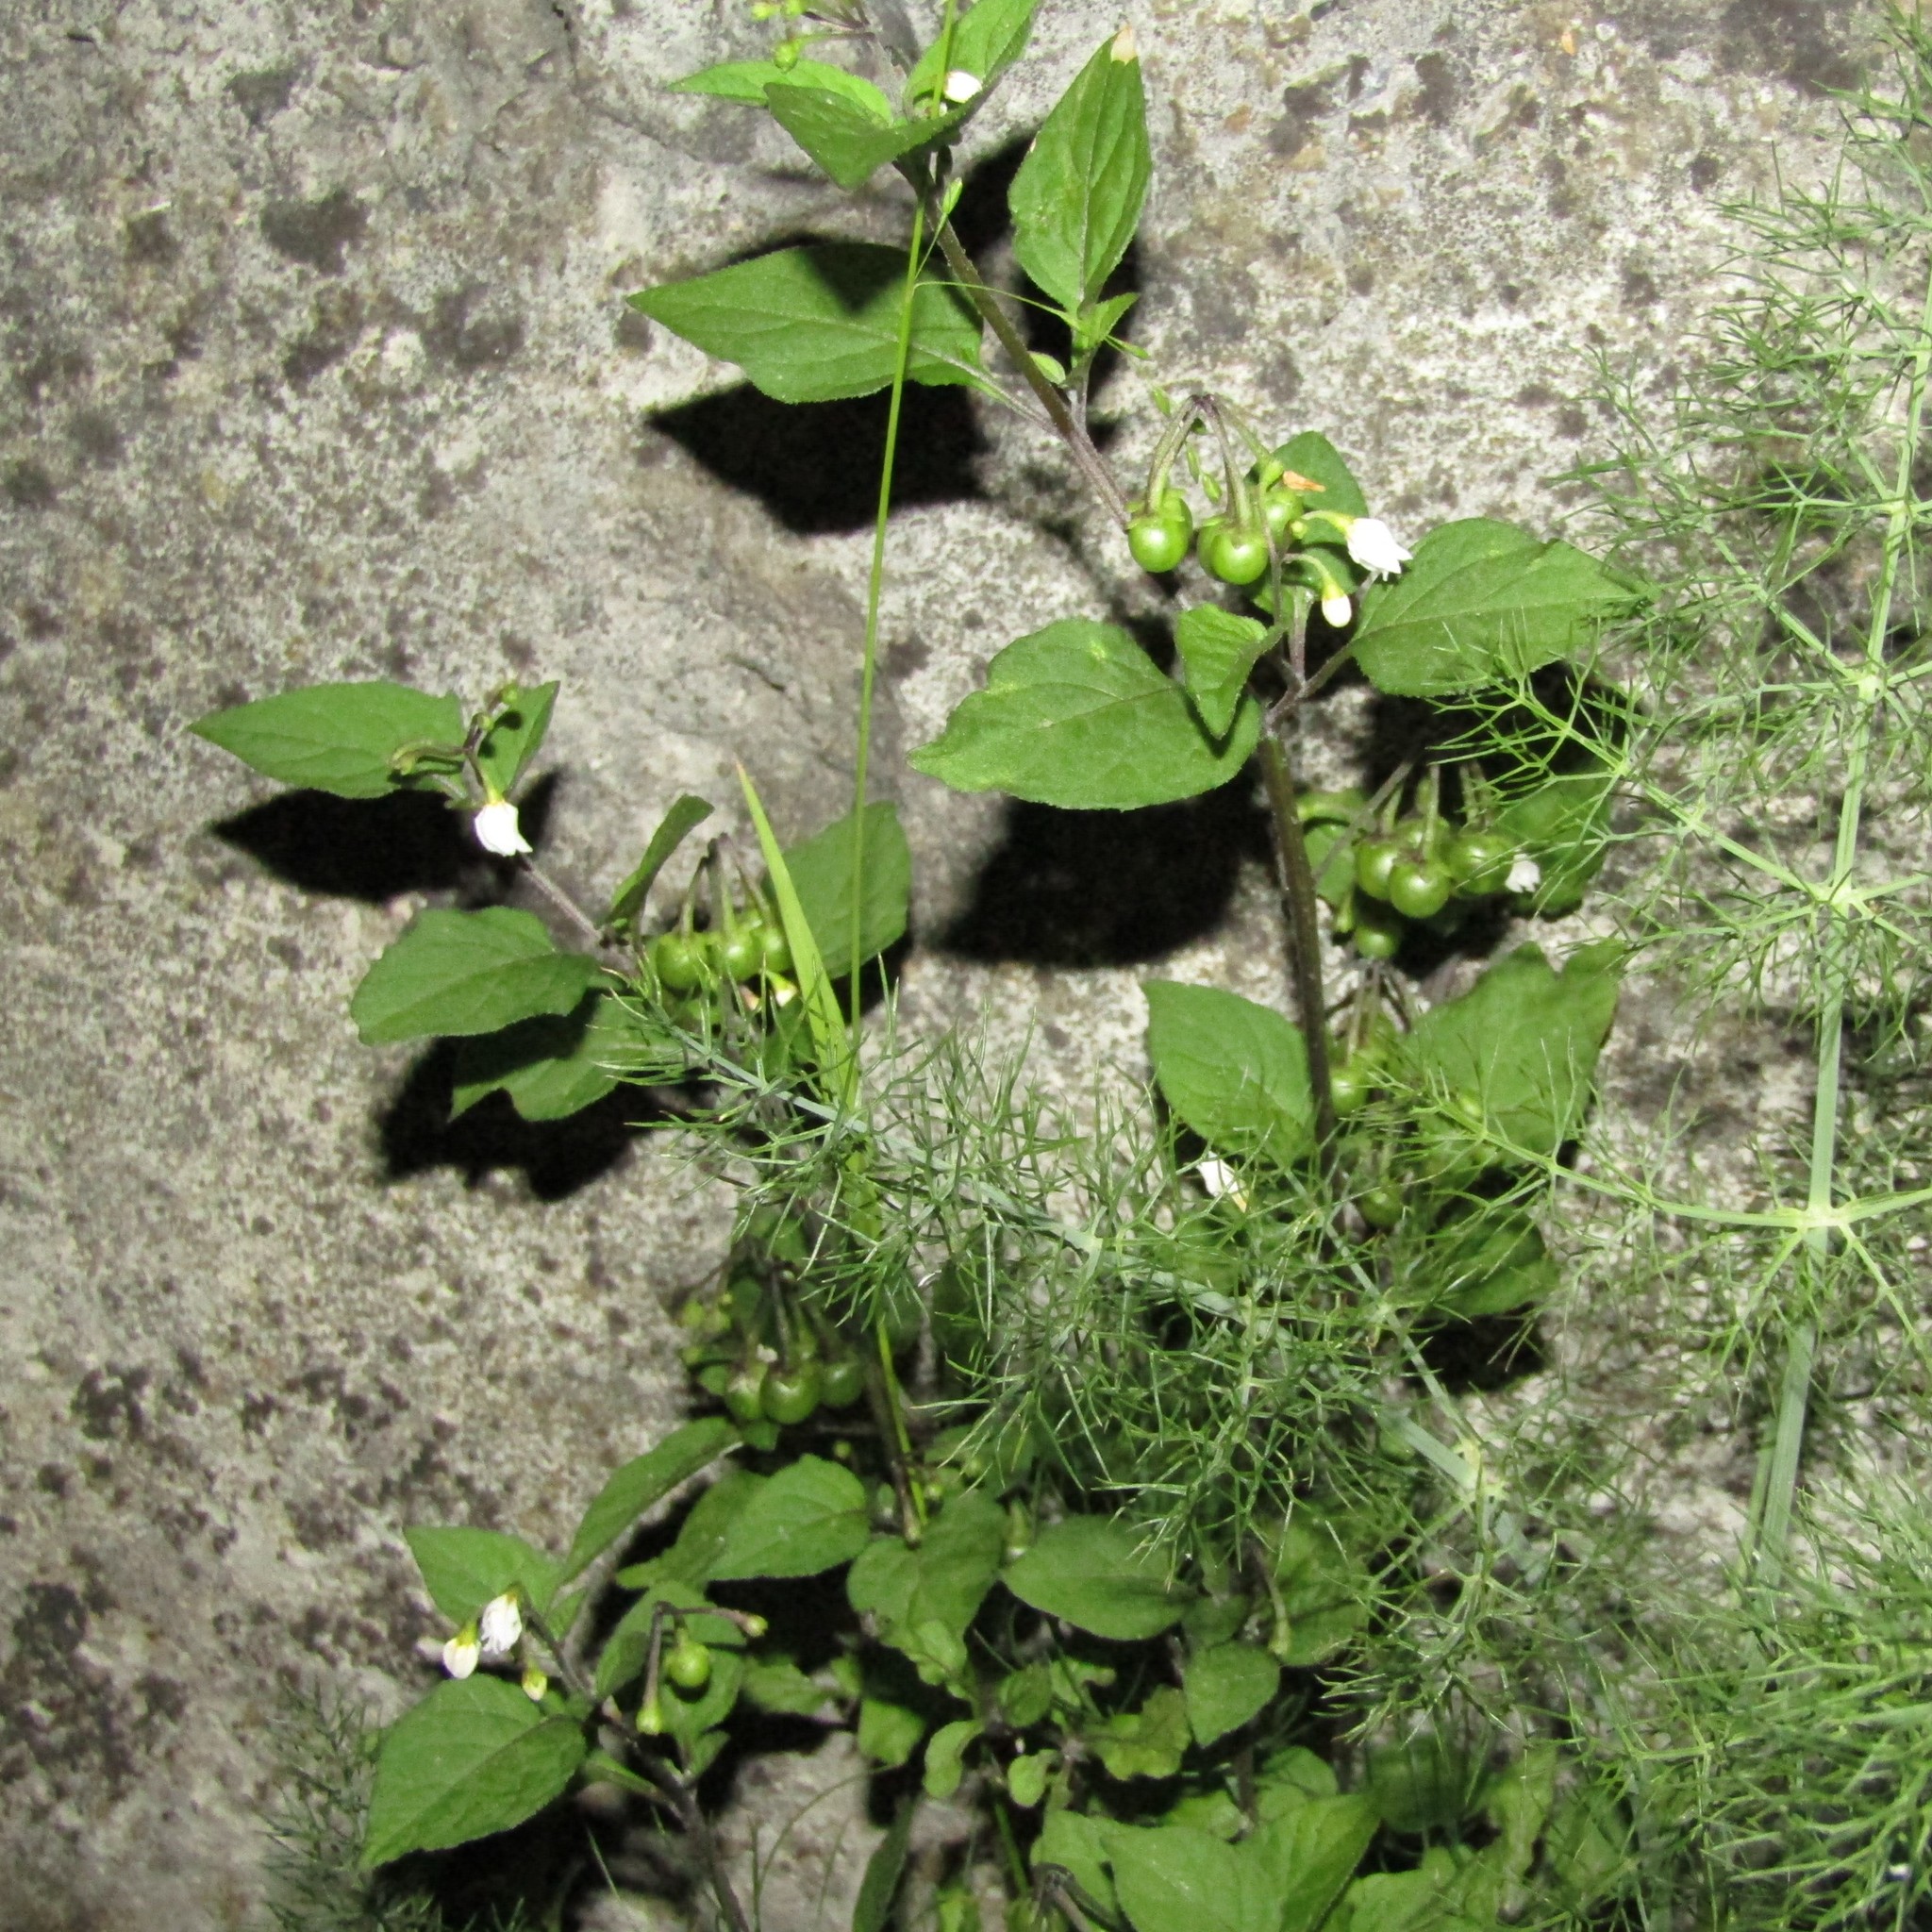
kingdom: Plantae
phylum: Tracheophyta
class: Magnoliopsida
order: Solanales
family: Solanaceae
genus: Solanum
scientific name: Solanum nigrum
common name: Black nightshade
